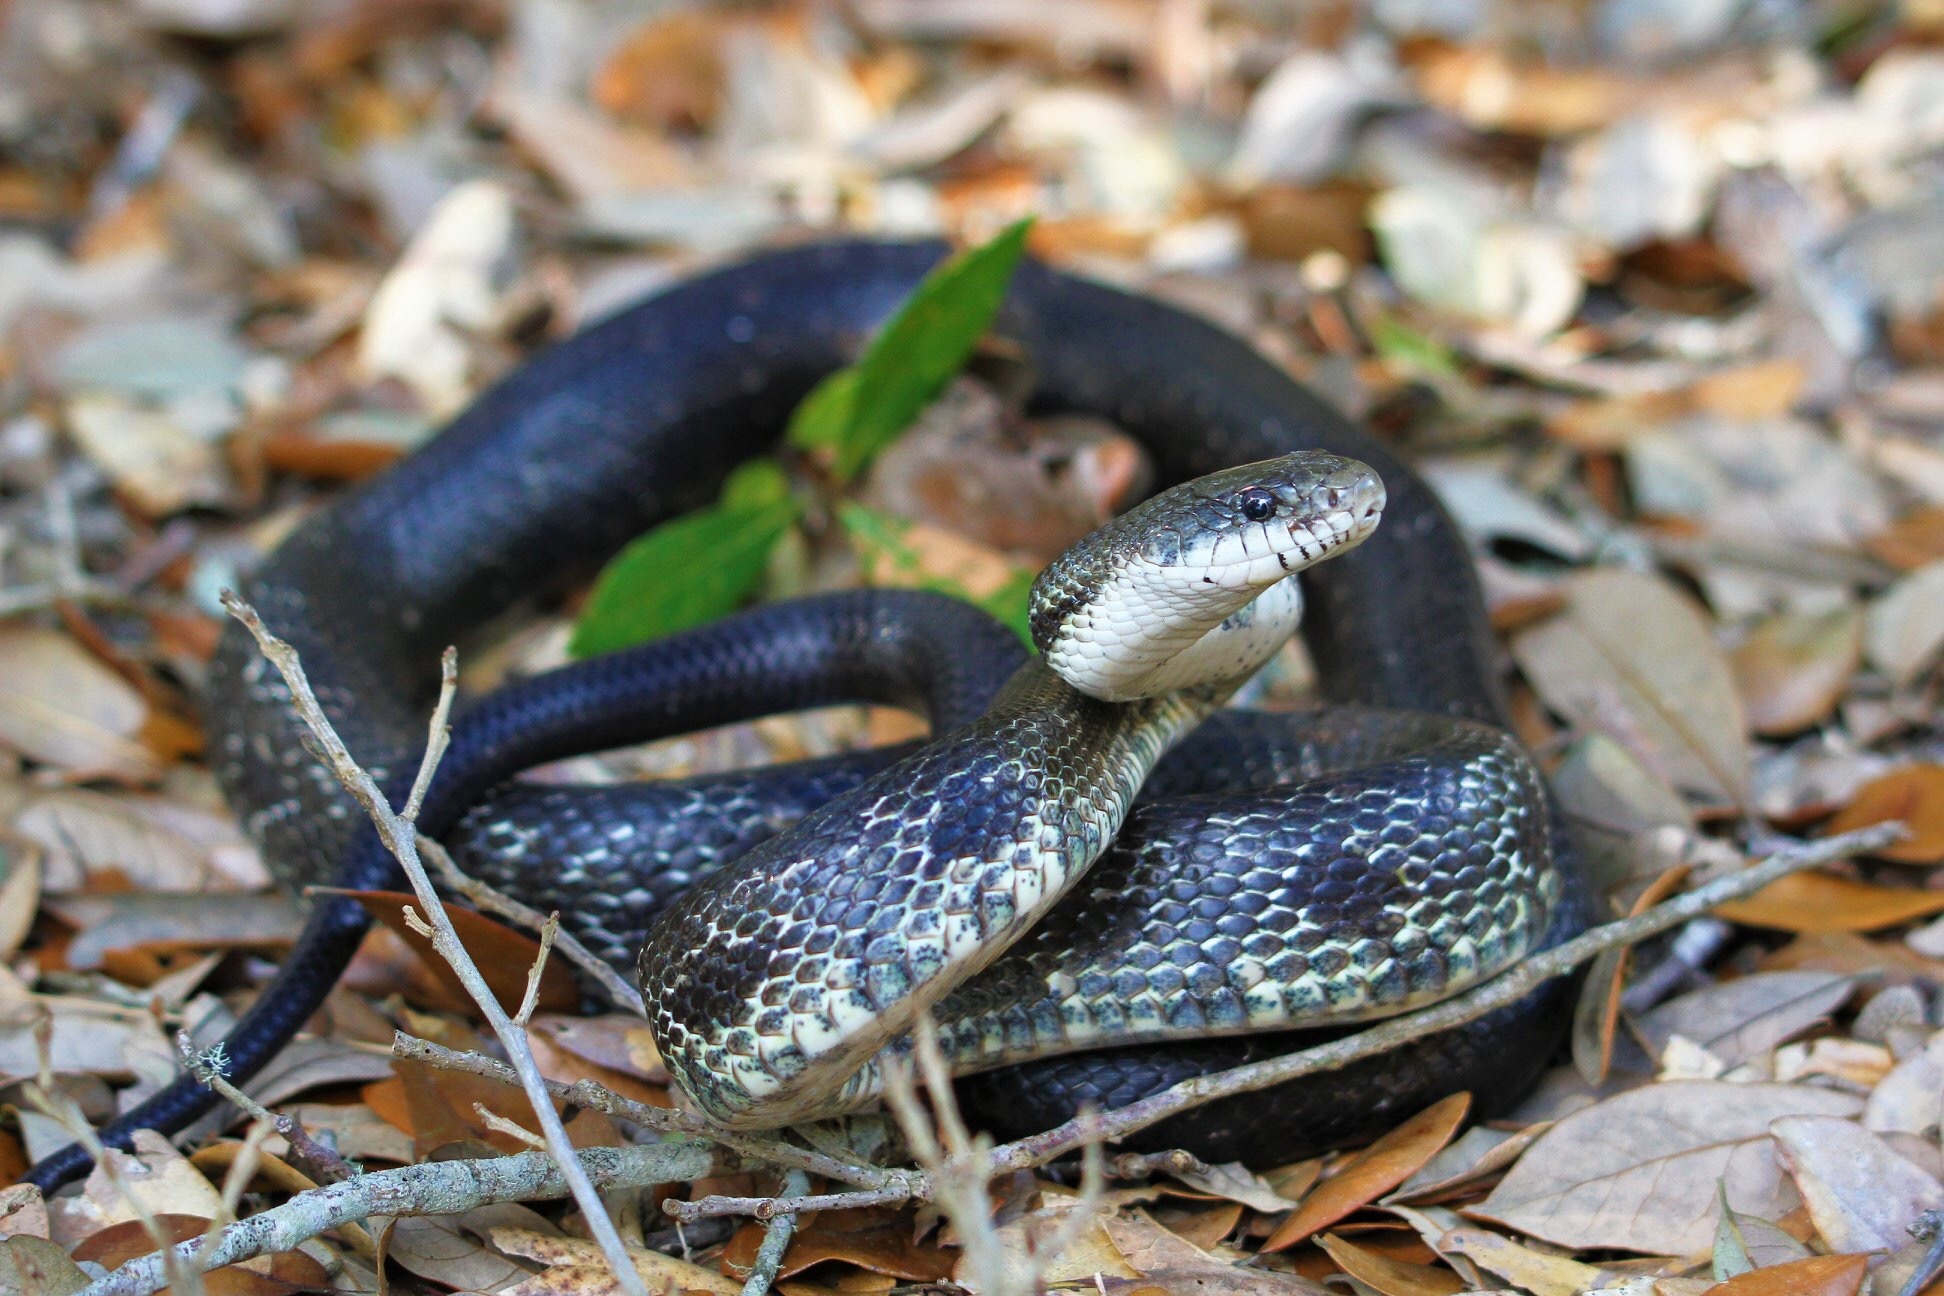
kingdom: Animalia
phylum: Chordata
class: Squamata
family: Colubridae
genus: Pantherophis
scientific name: Pantherophis alleghaniensis
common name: Eastern rat snake
